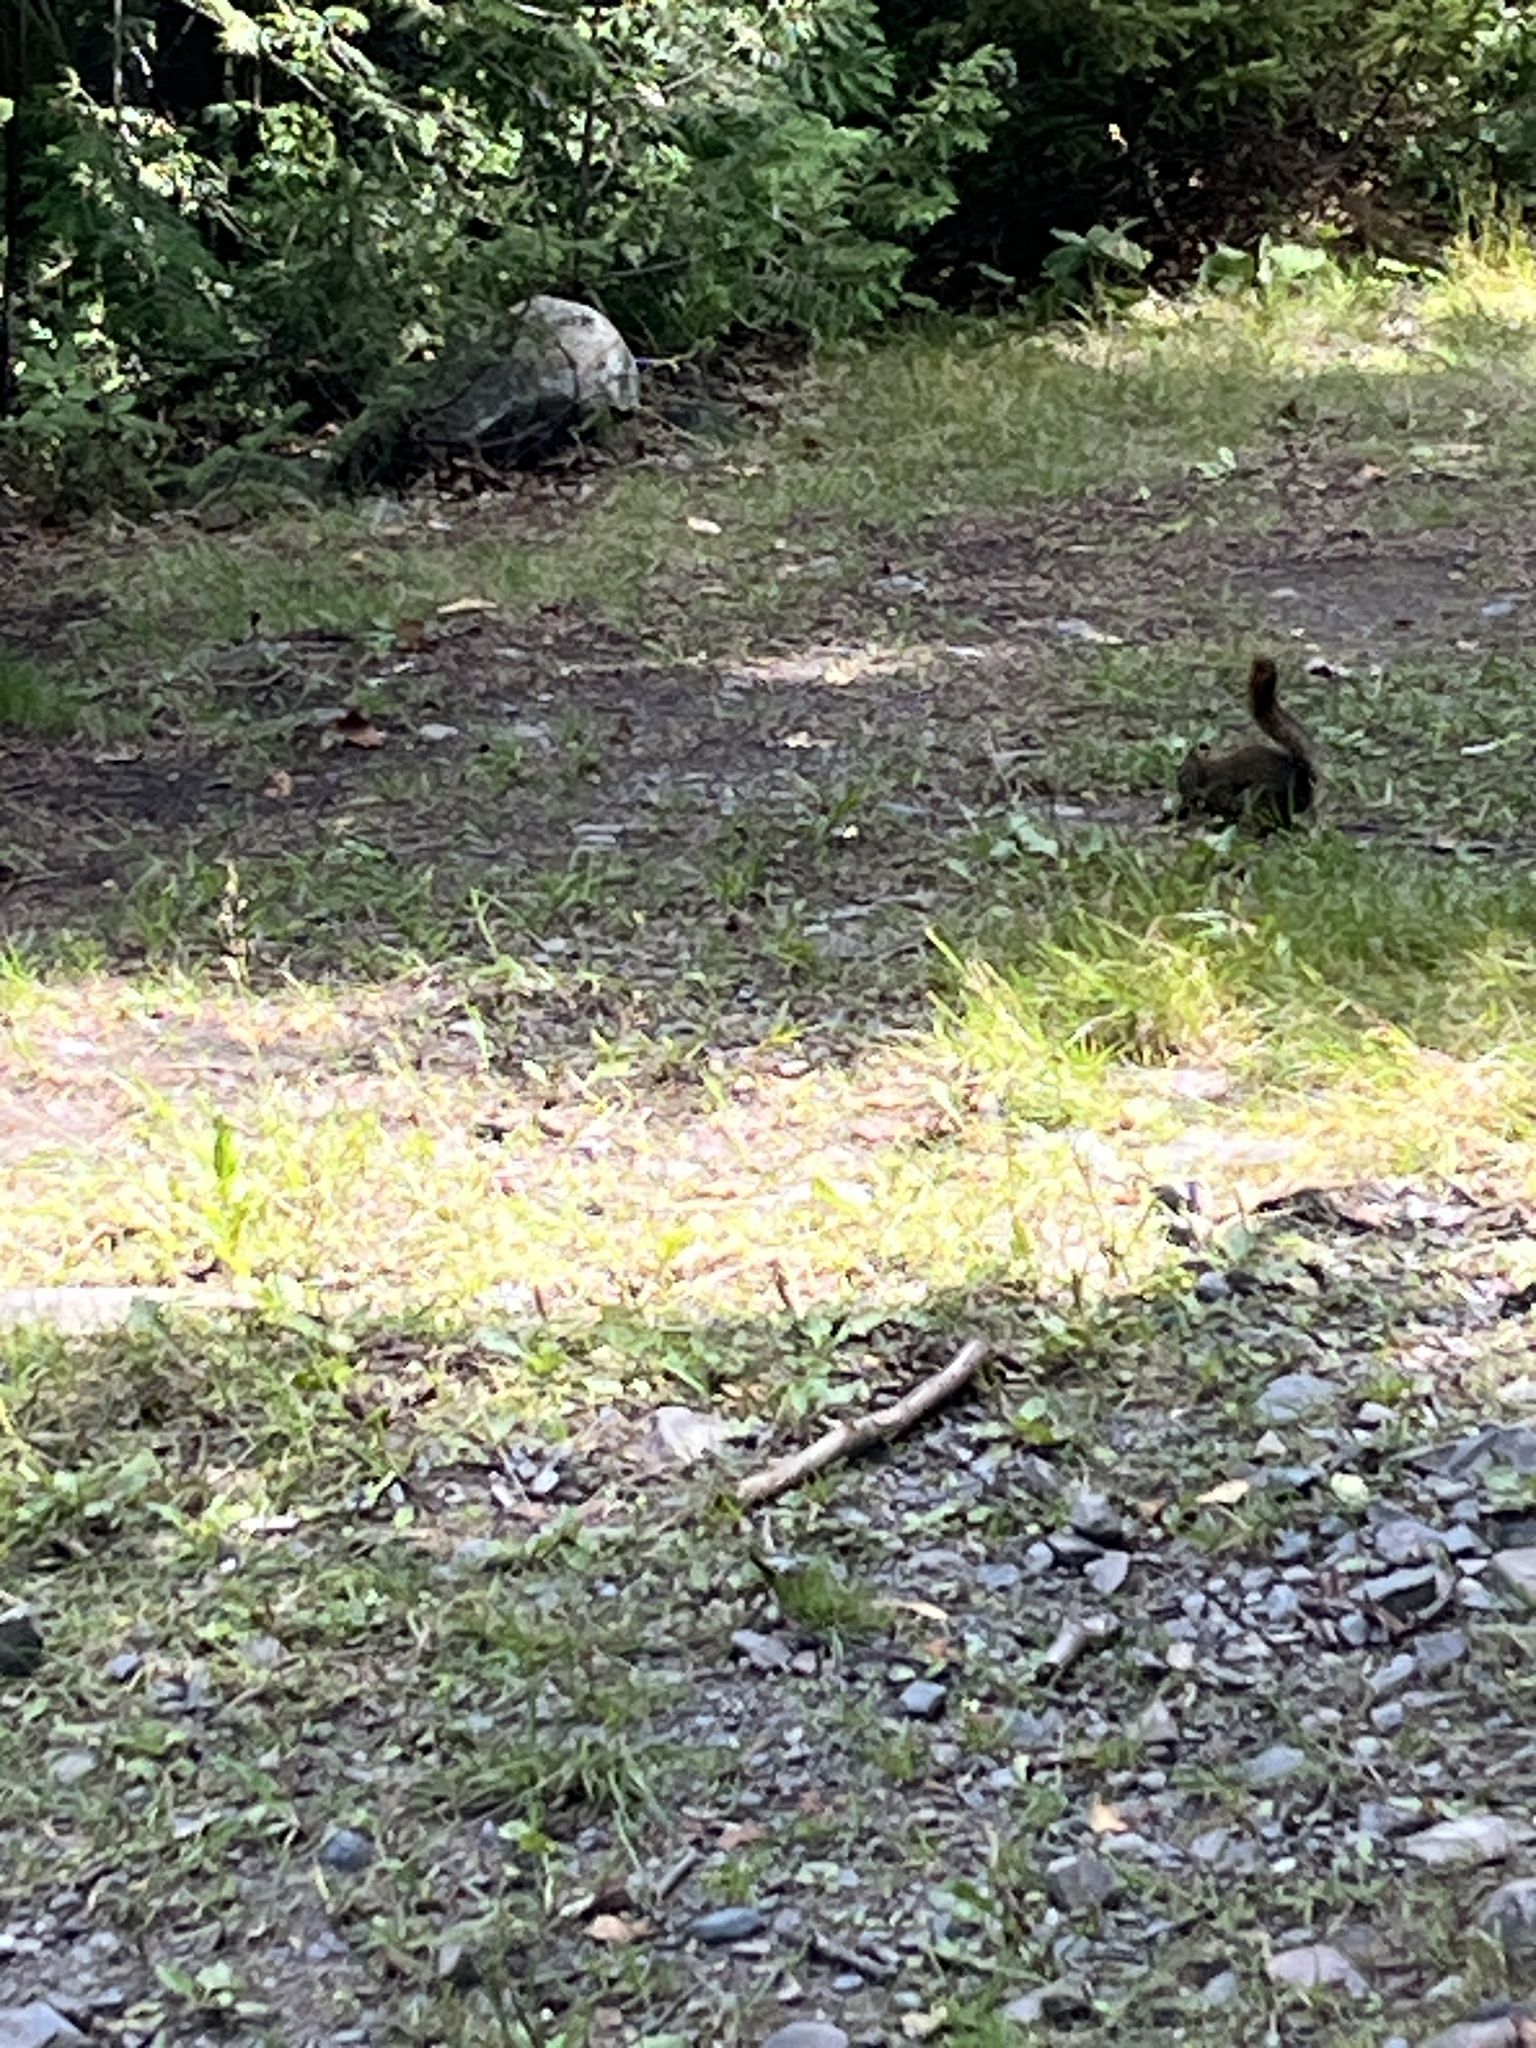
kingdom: Animalia
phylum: Chordata
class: Mammalia
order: Rodentia
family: Sciuridae
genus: Tamiasciurus
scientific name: Tamiasciurus hudsonicus
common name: Red squirrel
